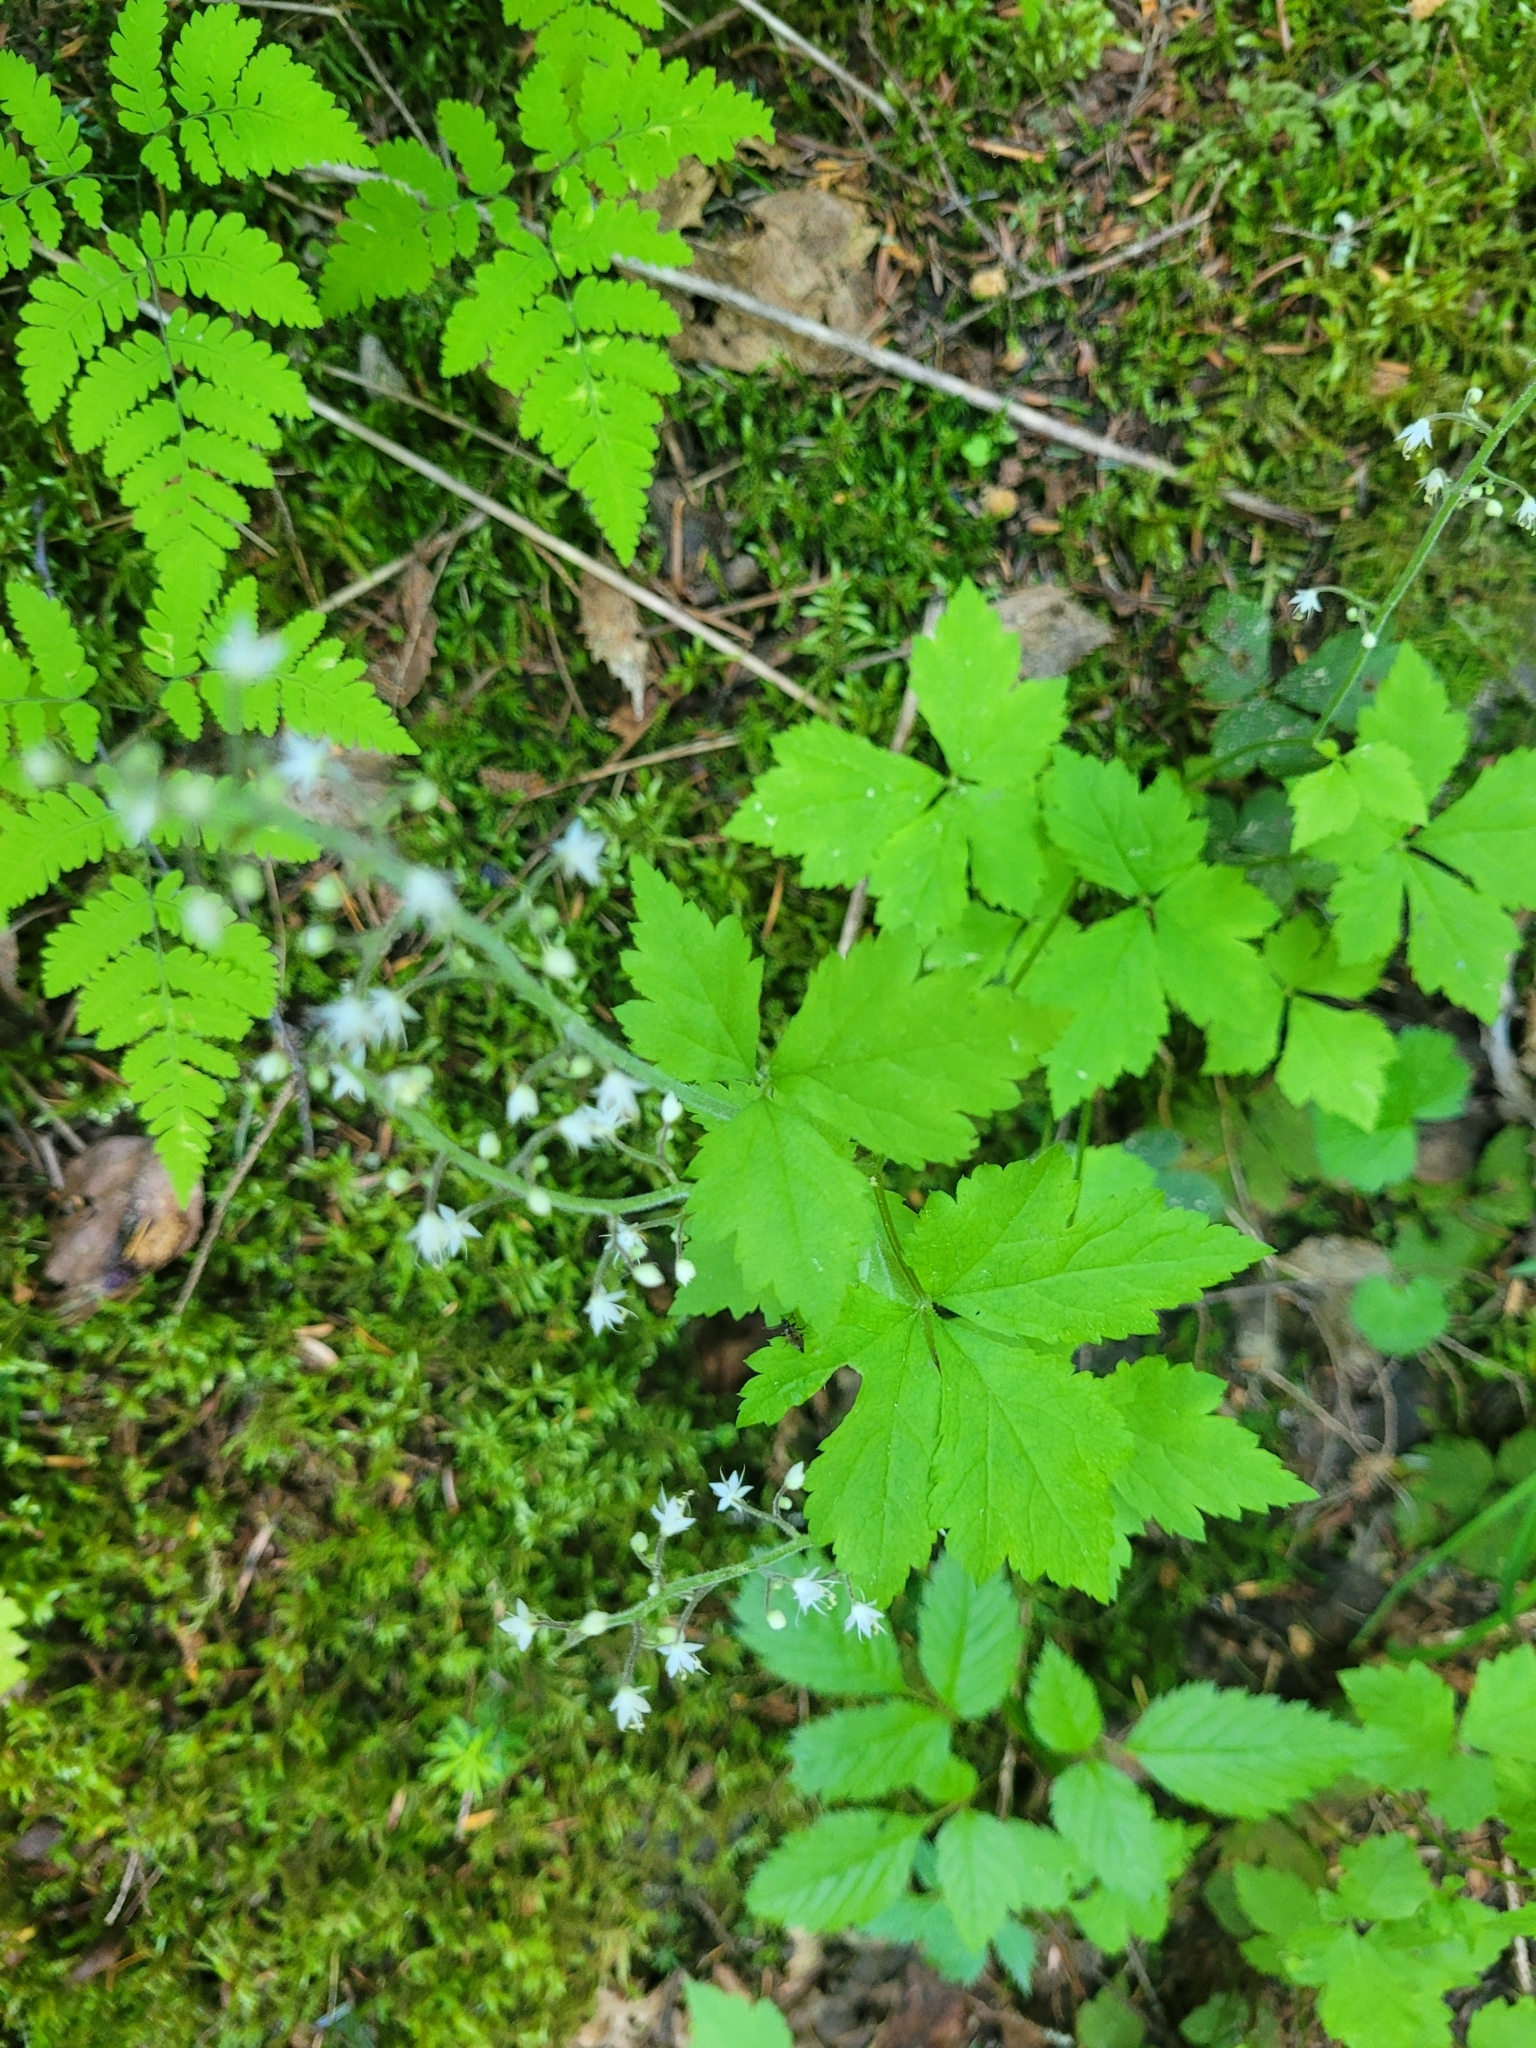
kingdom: Plantae
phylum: Tracheophyta
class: Magnoliopsida
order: Saxifragales
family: Saxifragaceae
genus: Tiarella
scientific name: Tiarella trifoliata
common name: Sugar-scoop
